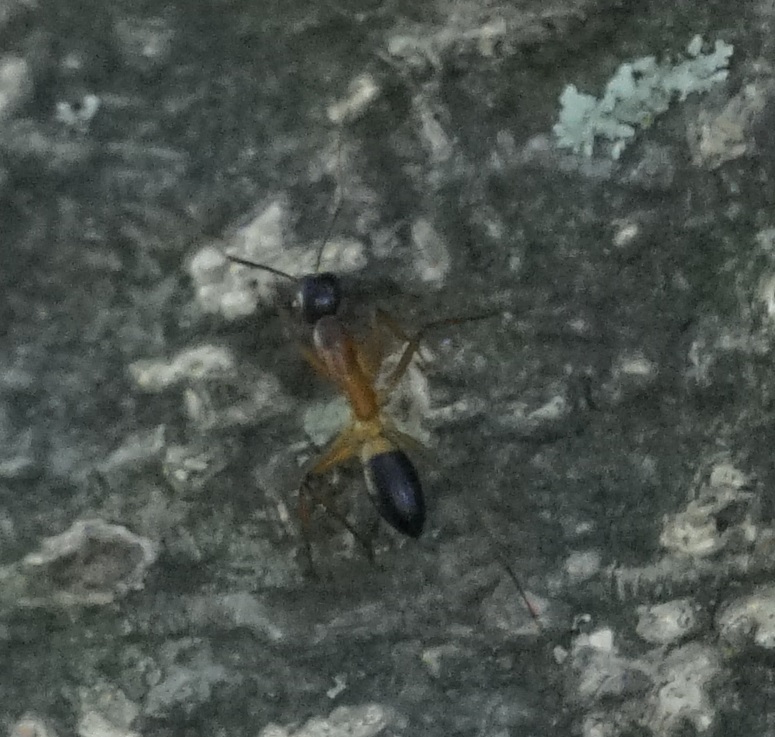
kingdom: Animalia
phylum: Arthropoda
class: Insecta
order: Hymenoptera
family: Formicidae
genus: Camponotus
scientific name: Camponotus consobrinus
